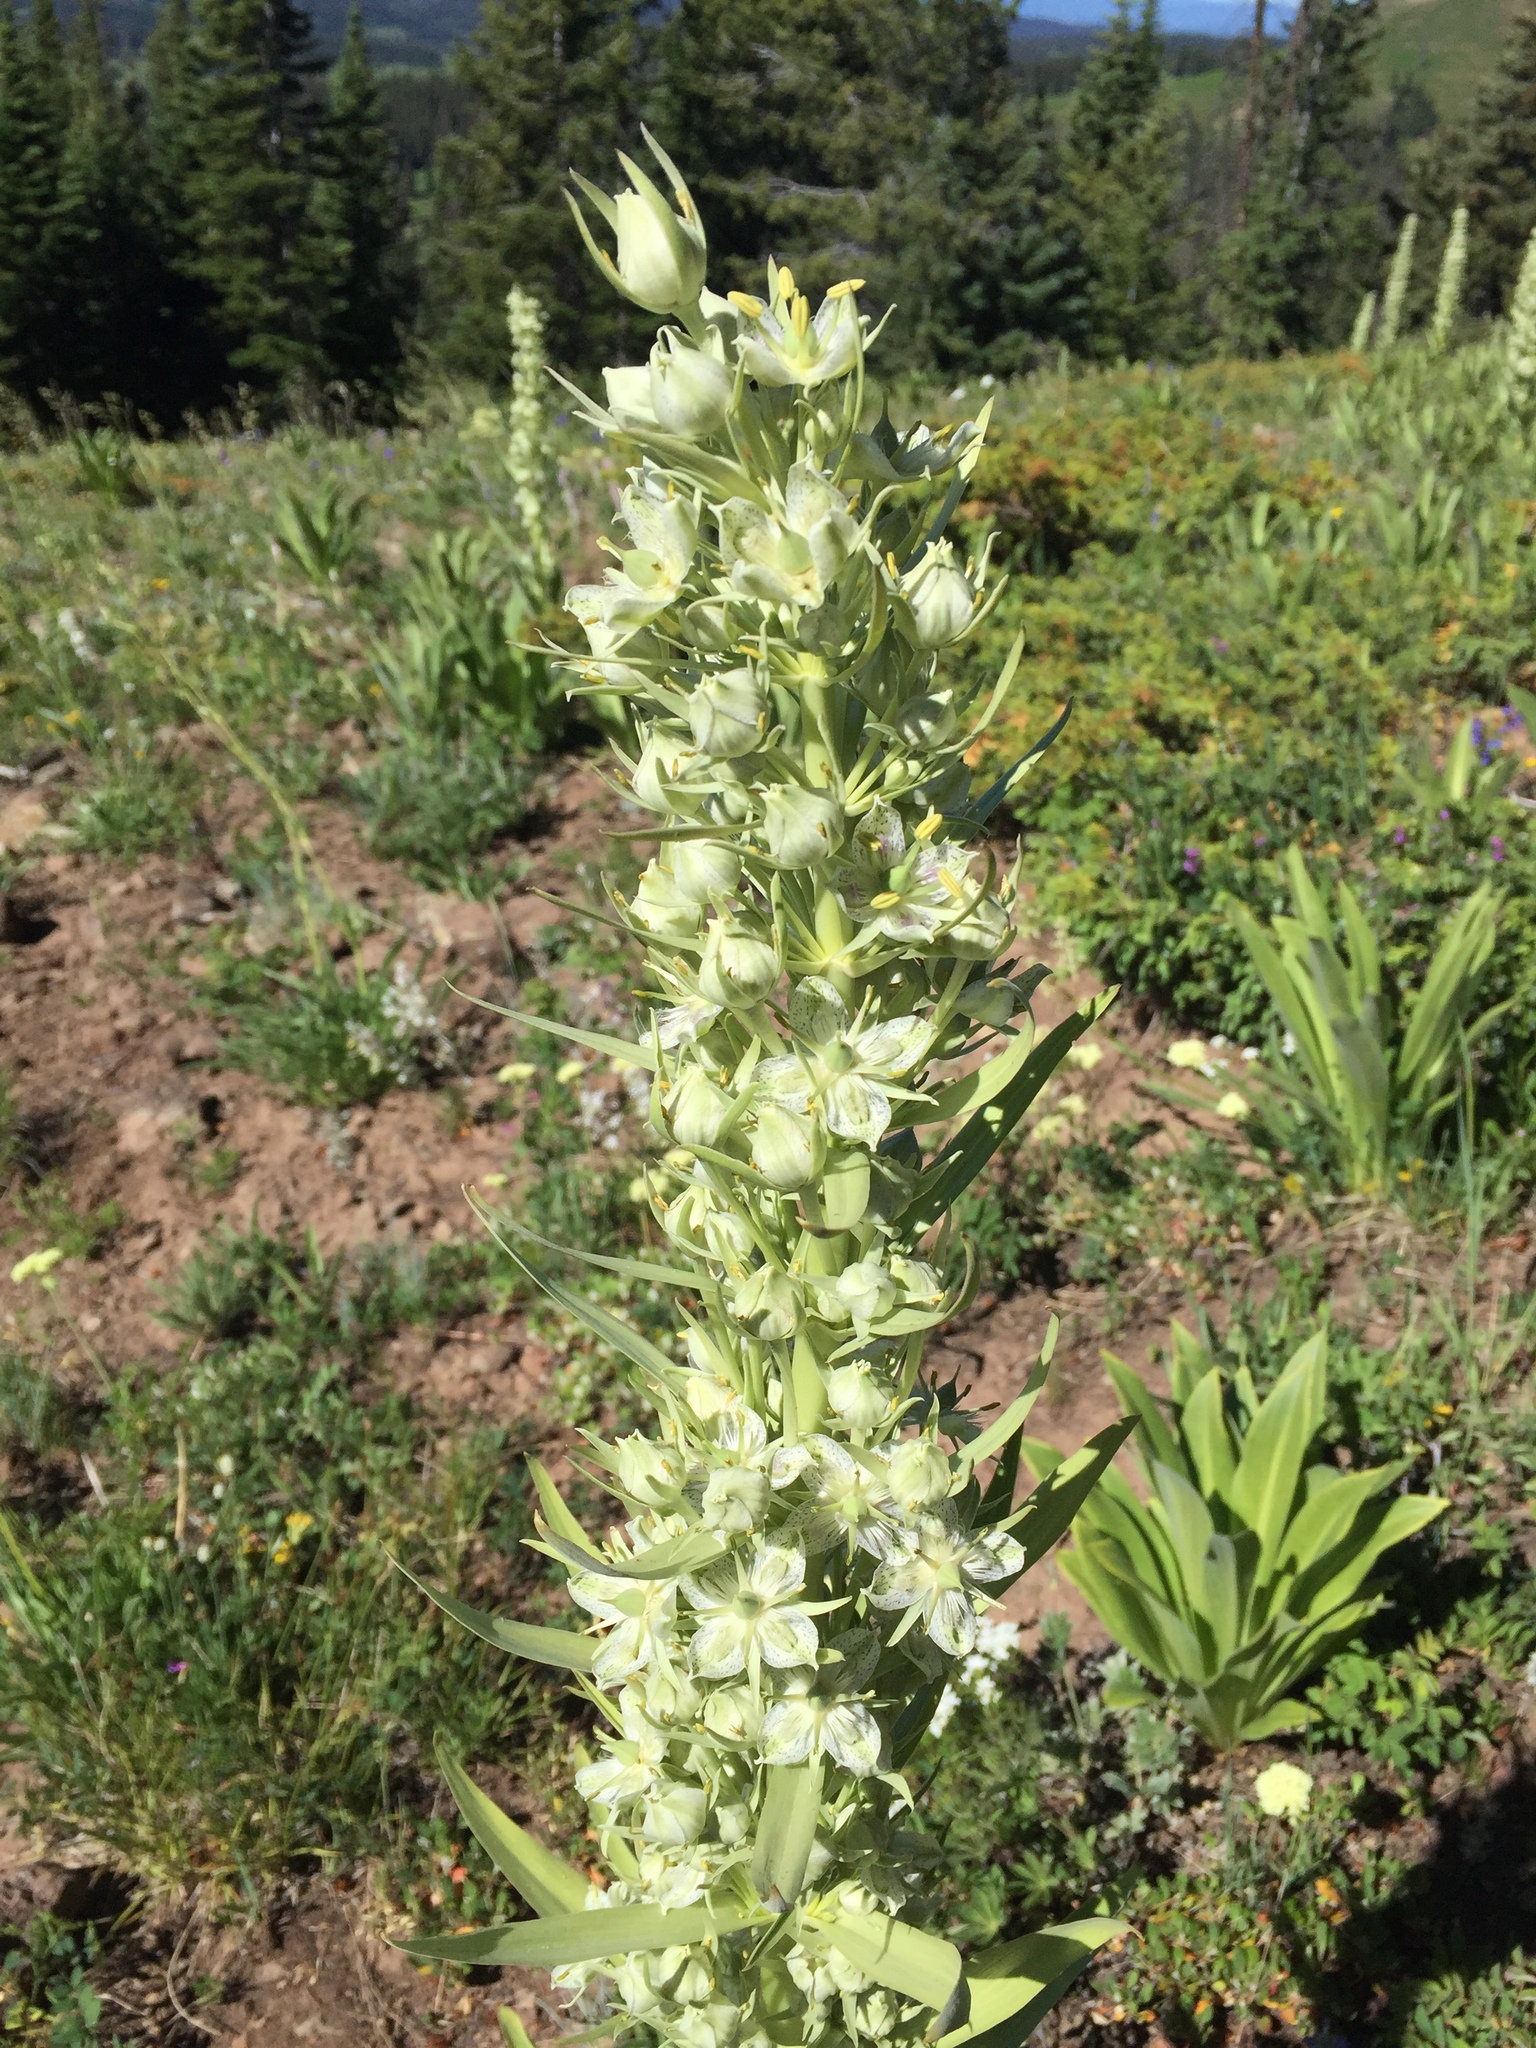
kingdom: Plantae
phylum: Tracheophyta
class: Magnoliopsida
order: Gentianales
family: Gentianaceae
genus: Frasera
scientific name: Frasera speciosa
